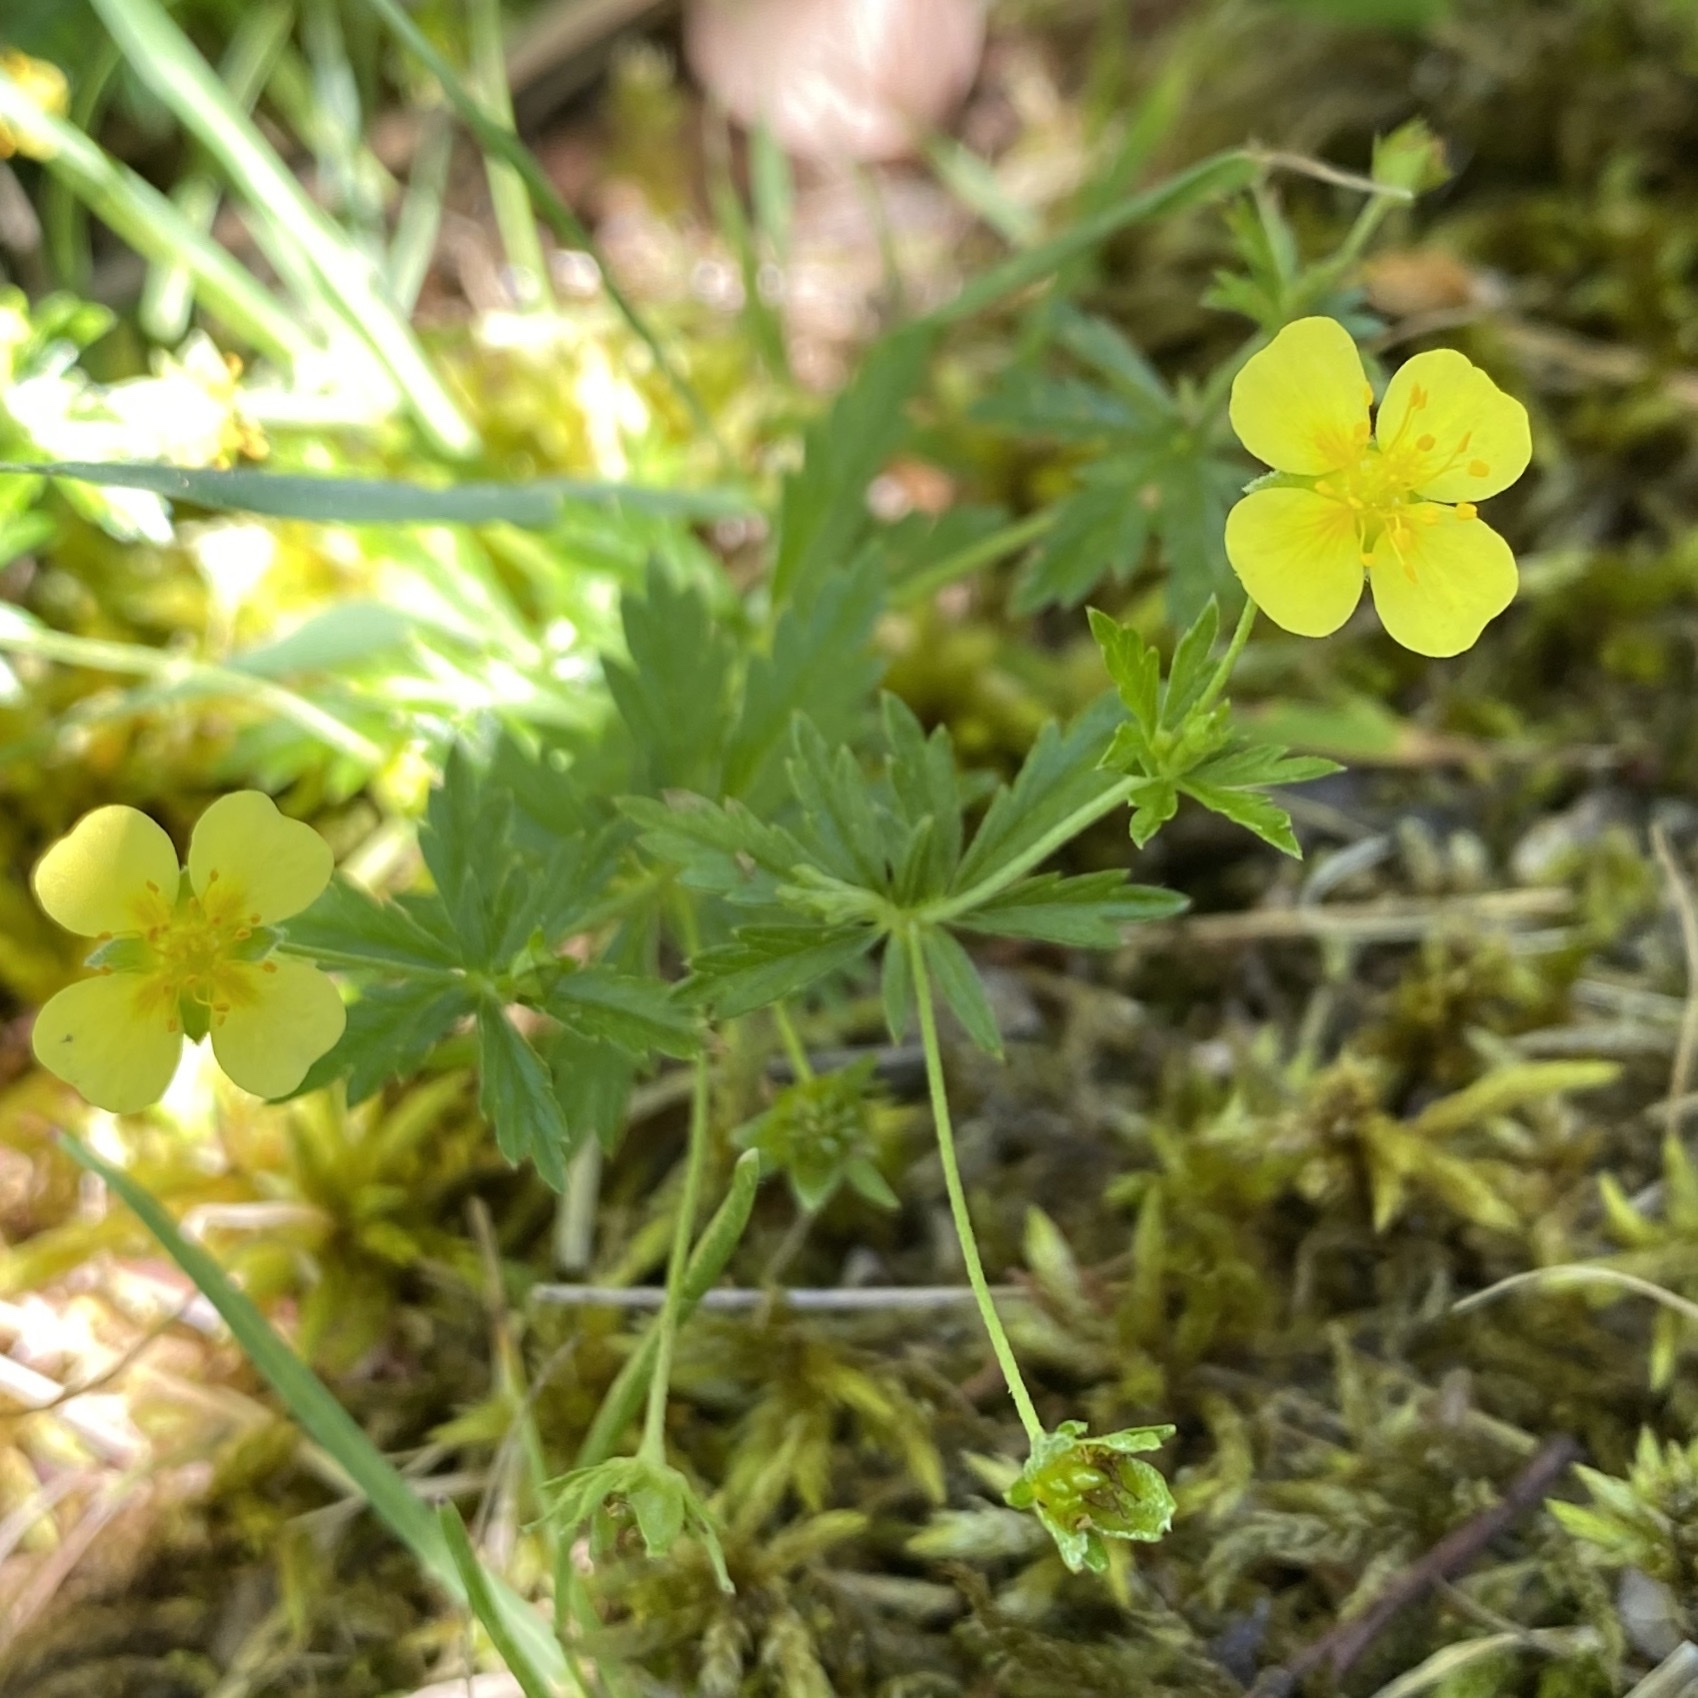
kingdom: Plantae
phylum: Tracheophyta
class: Magnoliopsida
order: Rosales
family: Rosaceae
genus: Potentilla
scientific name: Potentilla erecta
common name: Tormentil
